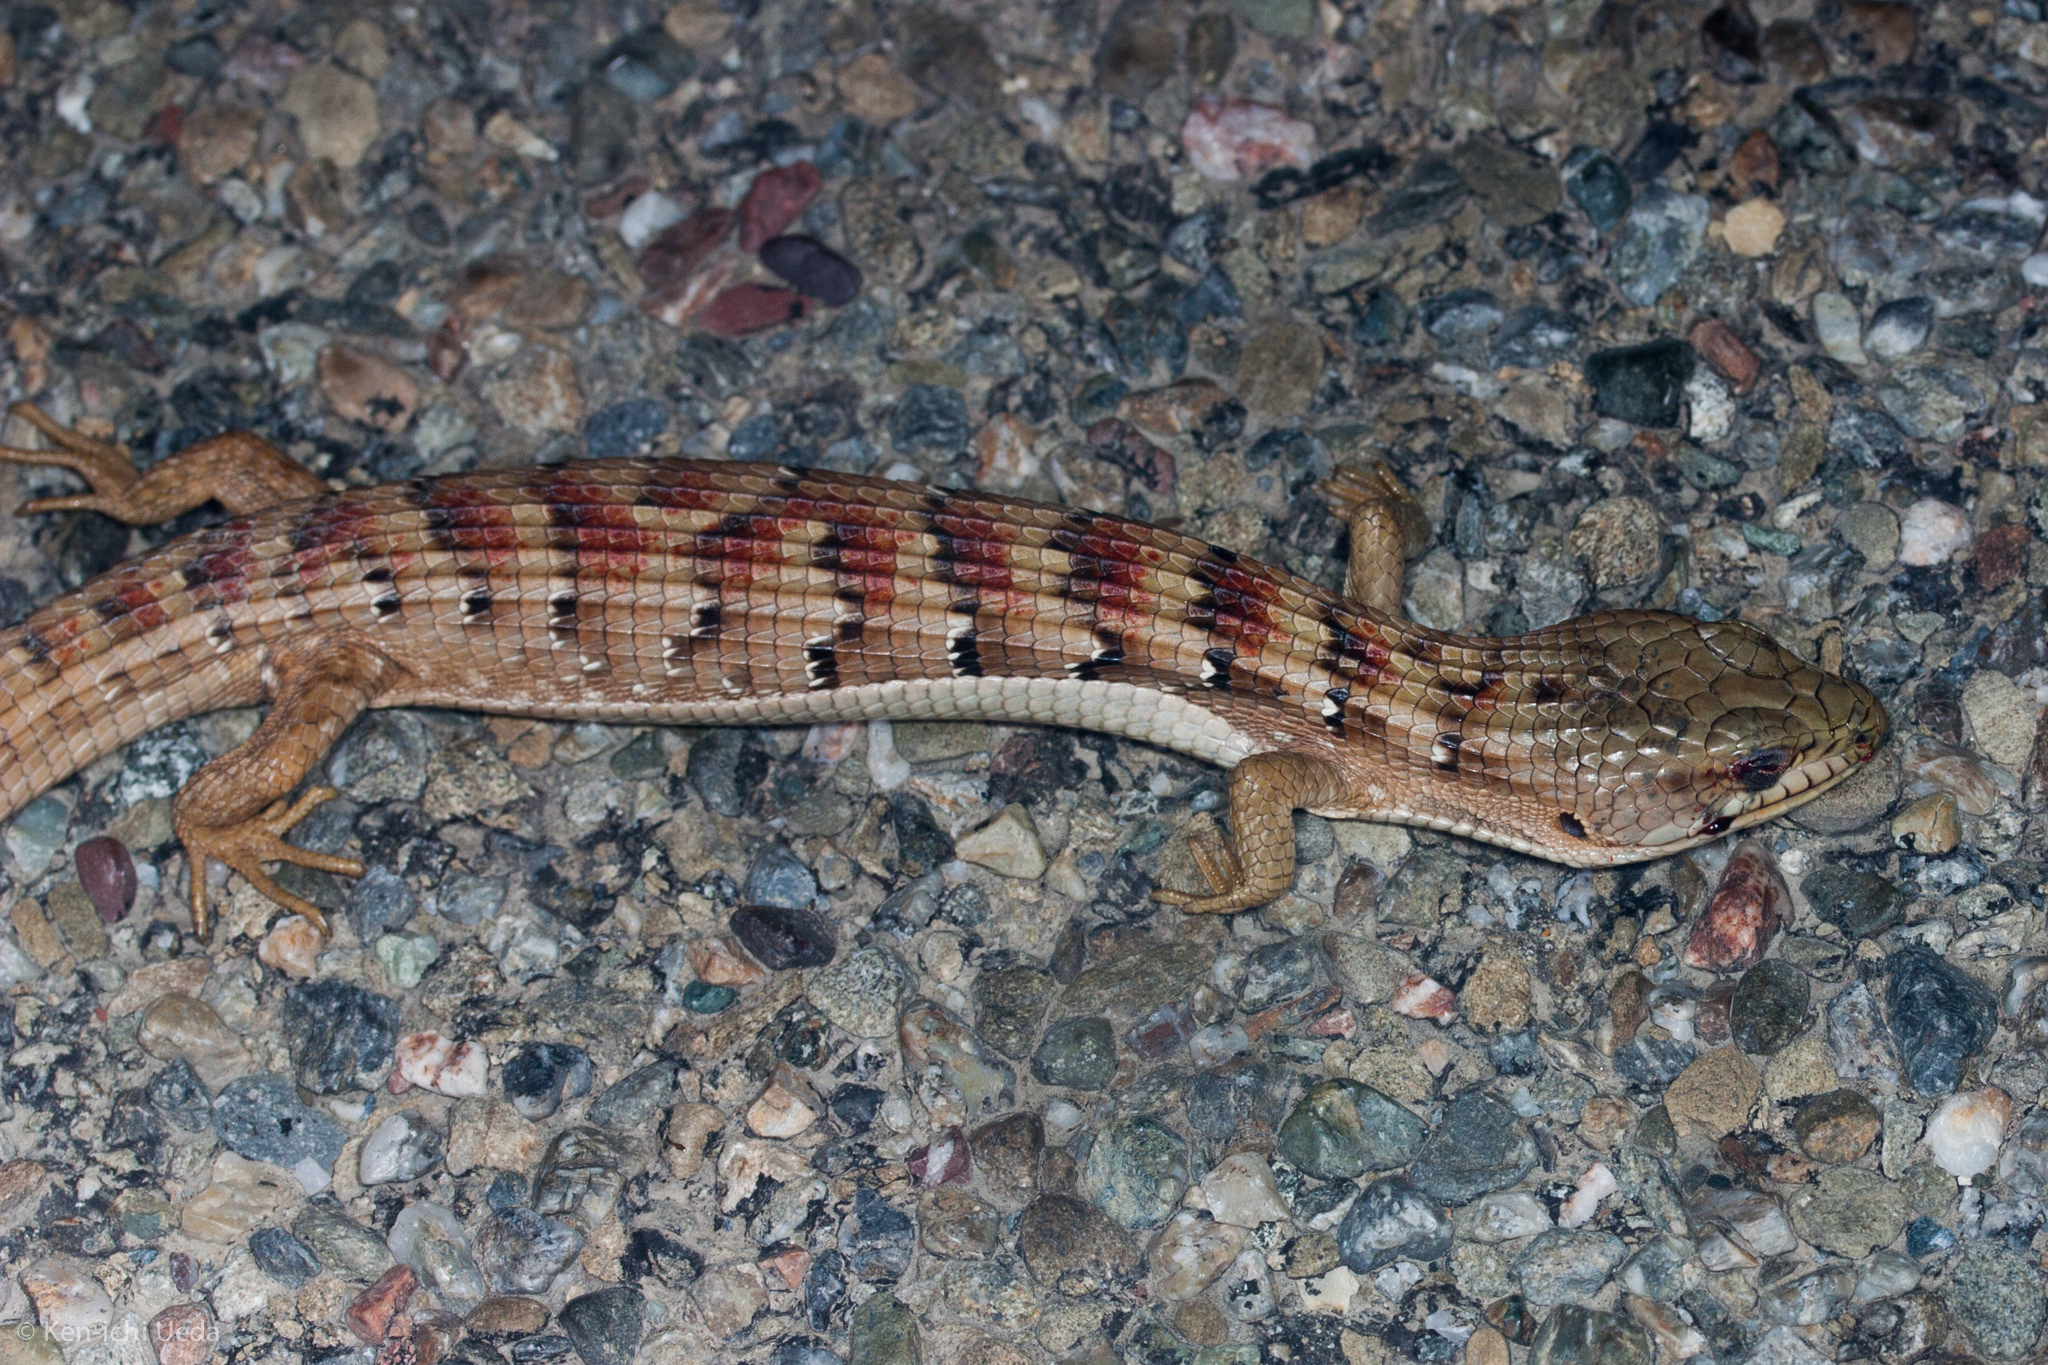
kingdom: Animalia
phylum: Chordata
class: Squamata
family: Anguidae
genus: Elgaria
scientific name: Elgaria multicarinata
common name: Southern alligator lizard
